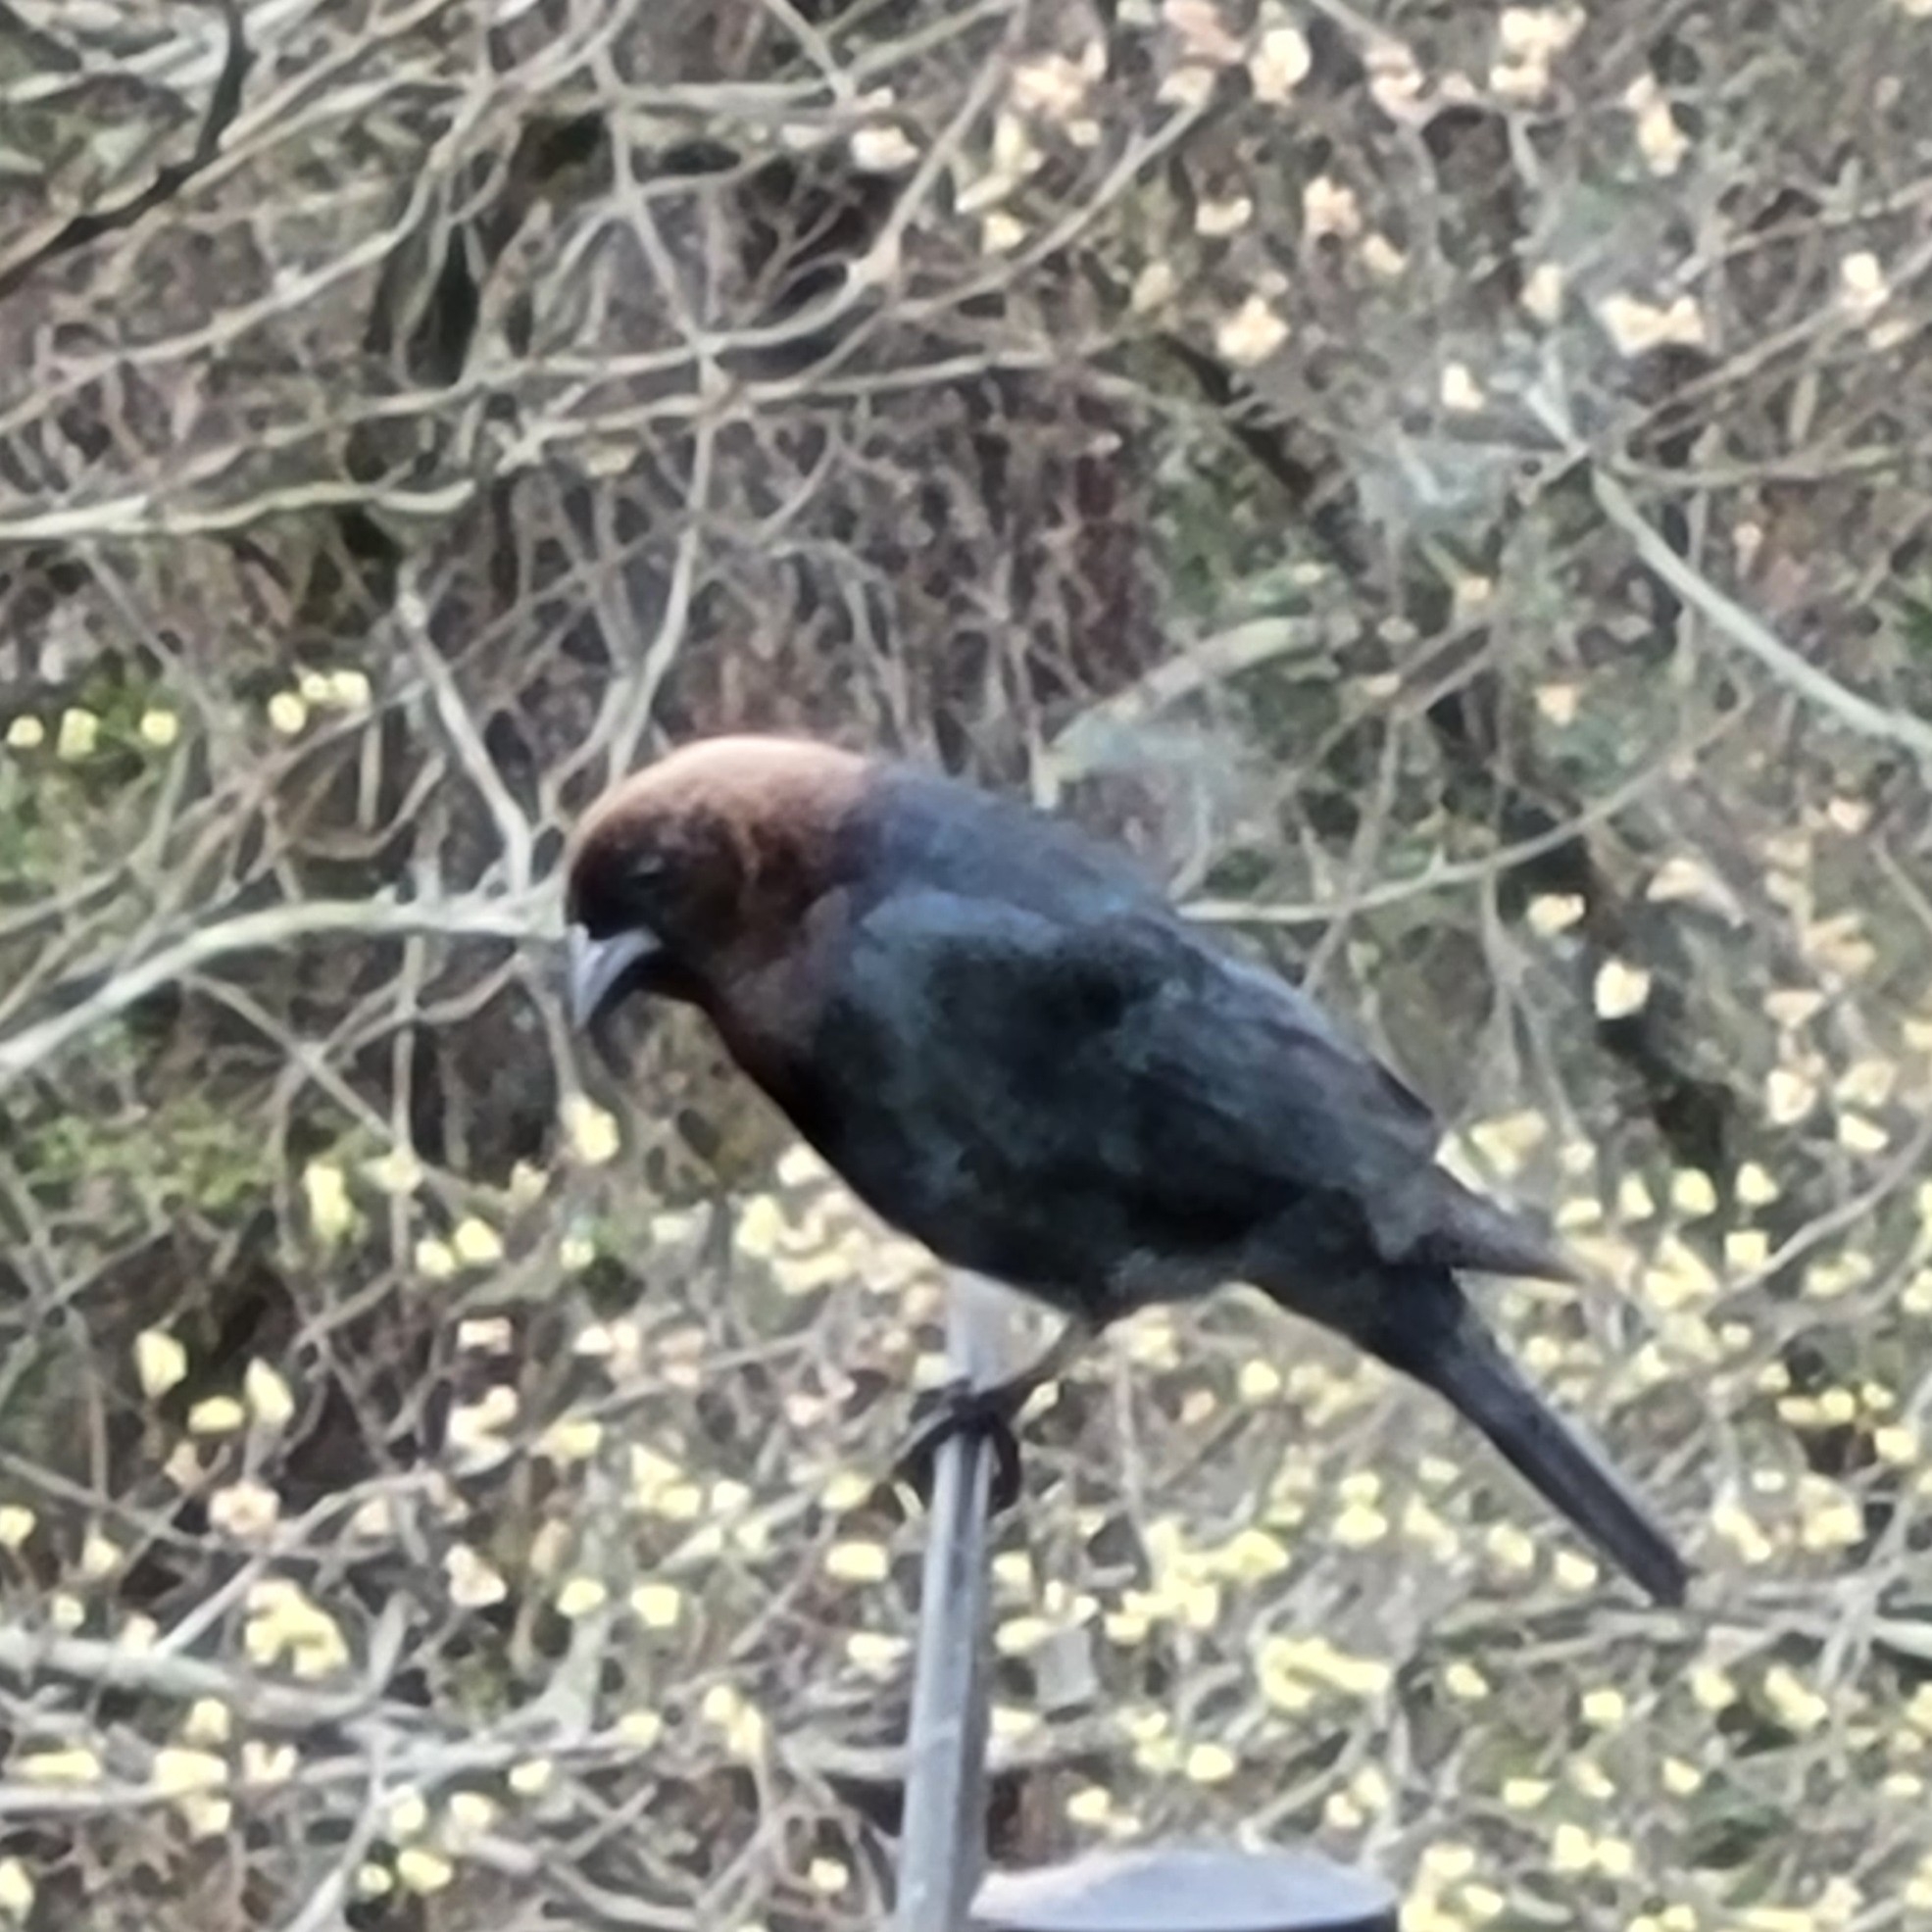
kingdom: Animalia
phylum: Chordata
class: Aves
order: Passeriformes
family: Icteridae
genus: Molothrus
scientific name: Molothrus ater
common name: Brown-headed cowbird
